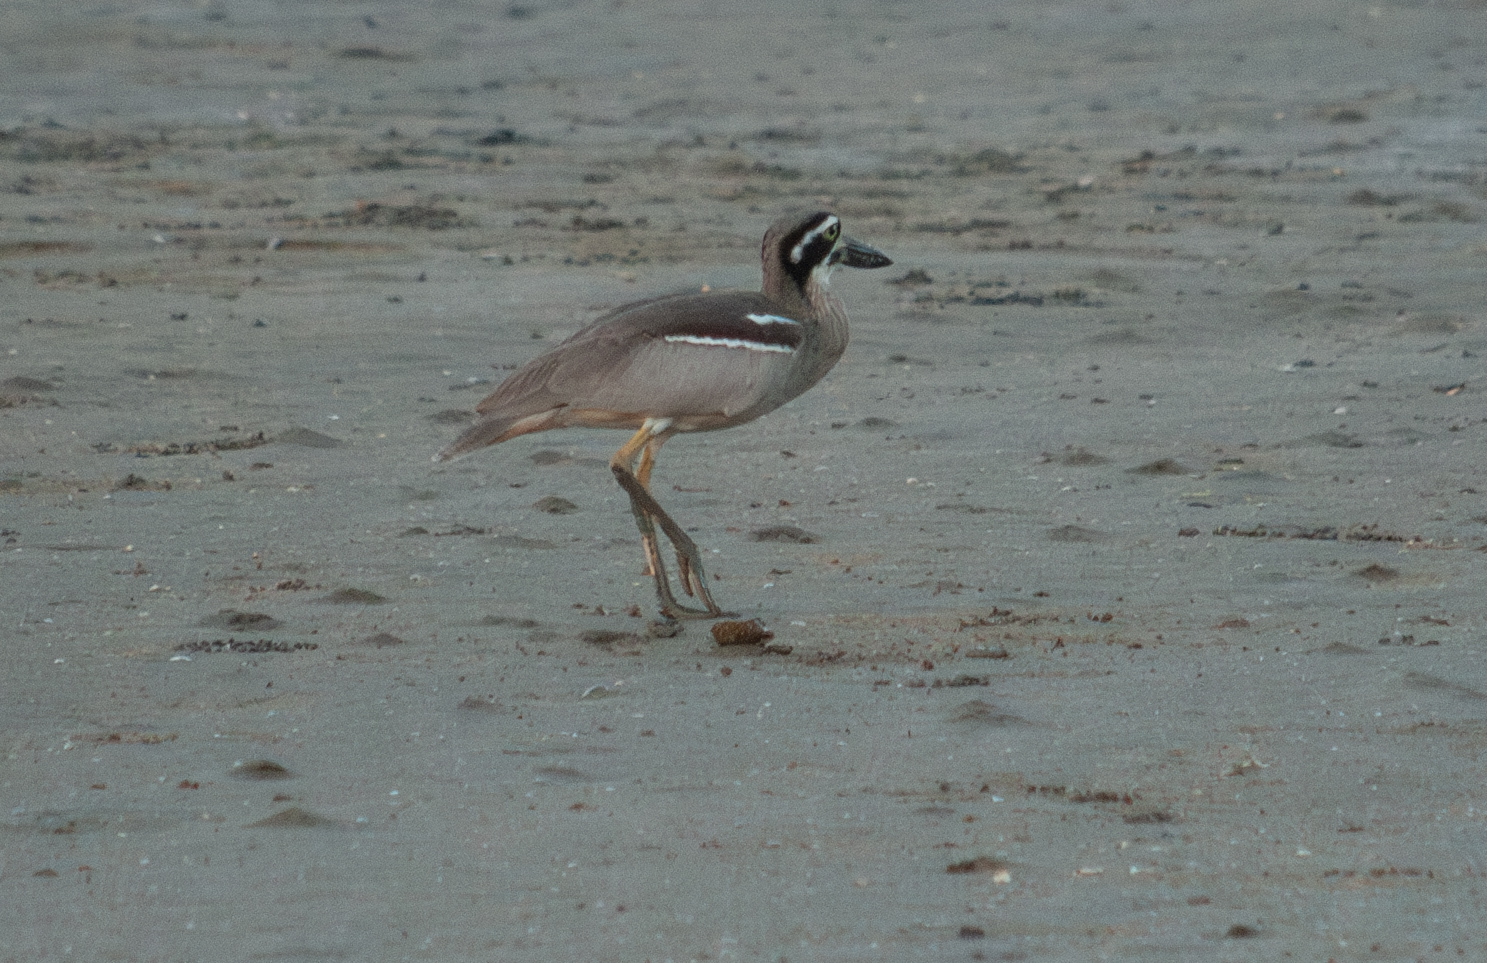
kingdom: Animalia
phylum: Chordata
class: Aves
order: Charadriiformes
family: Burhinidae
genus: Esacus
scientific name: Esacus magnirostris
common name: Beach stone-curlew
